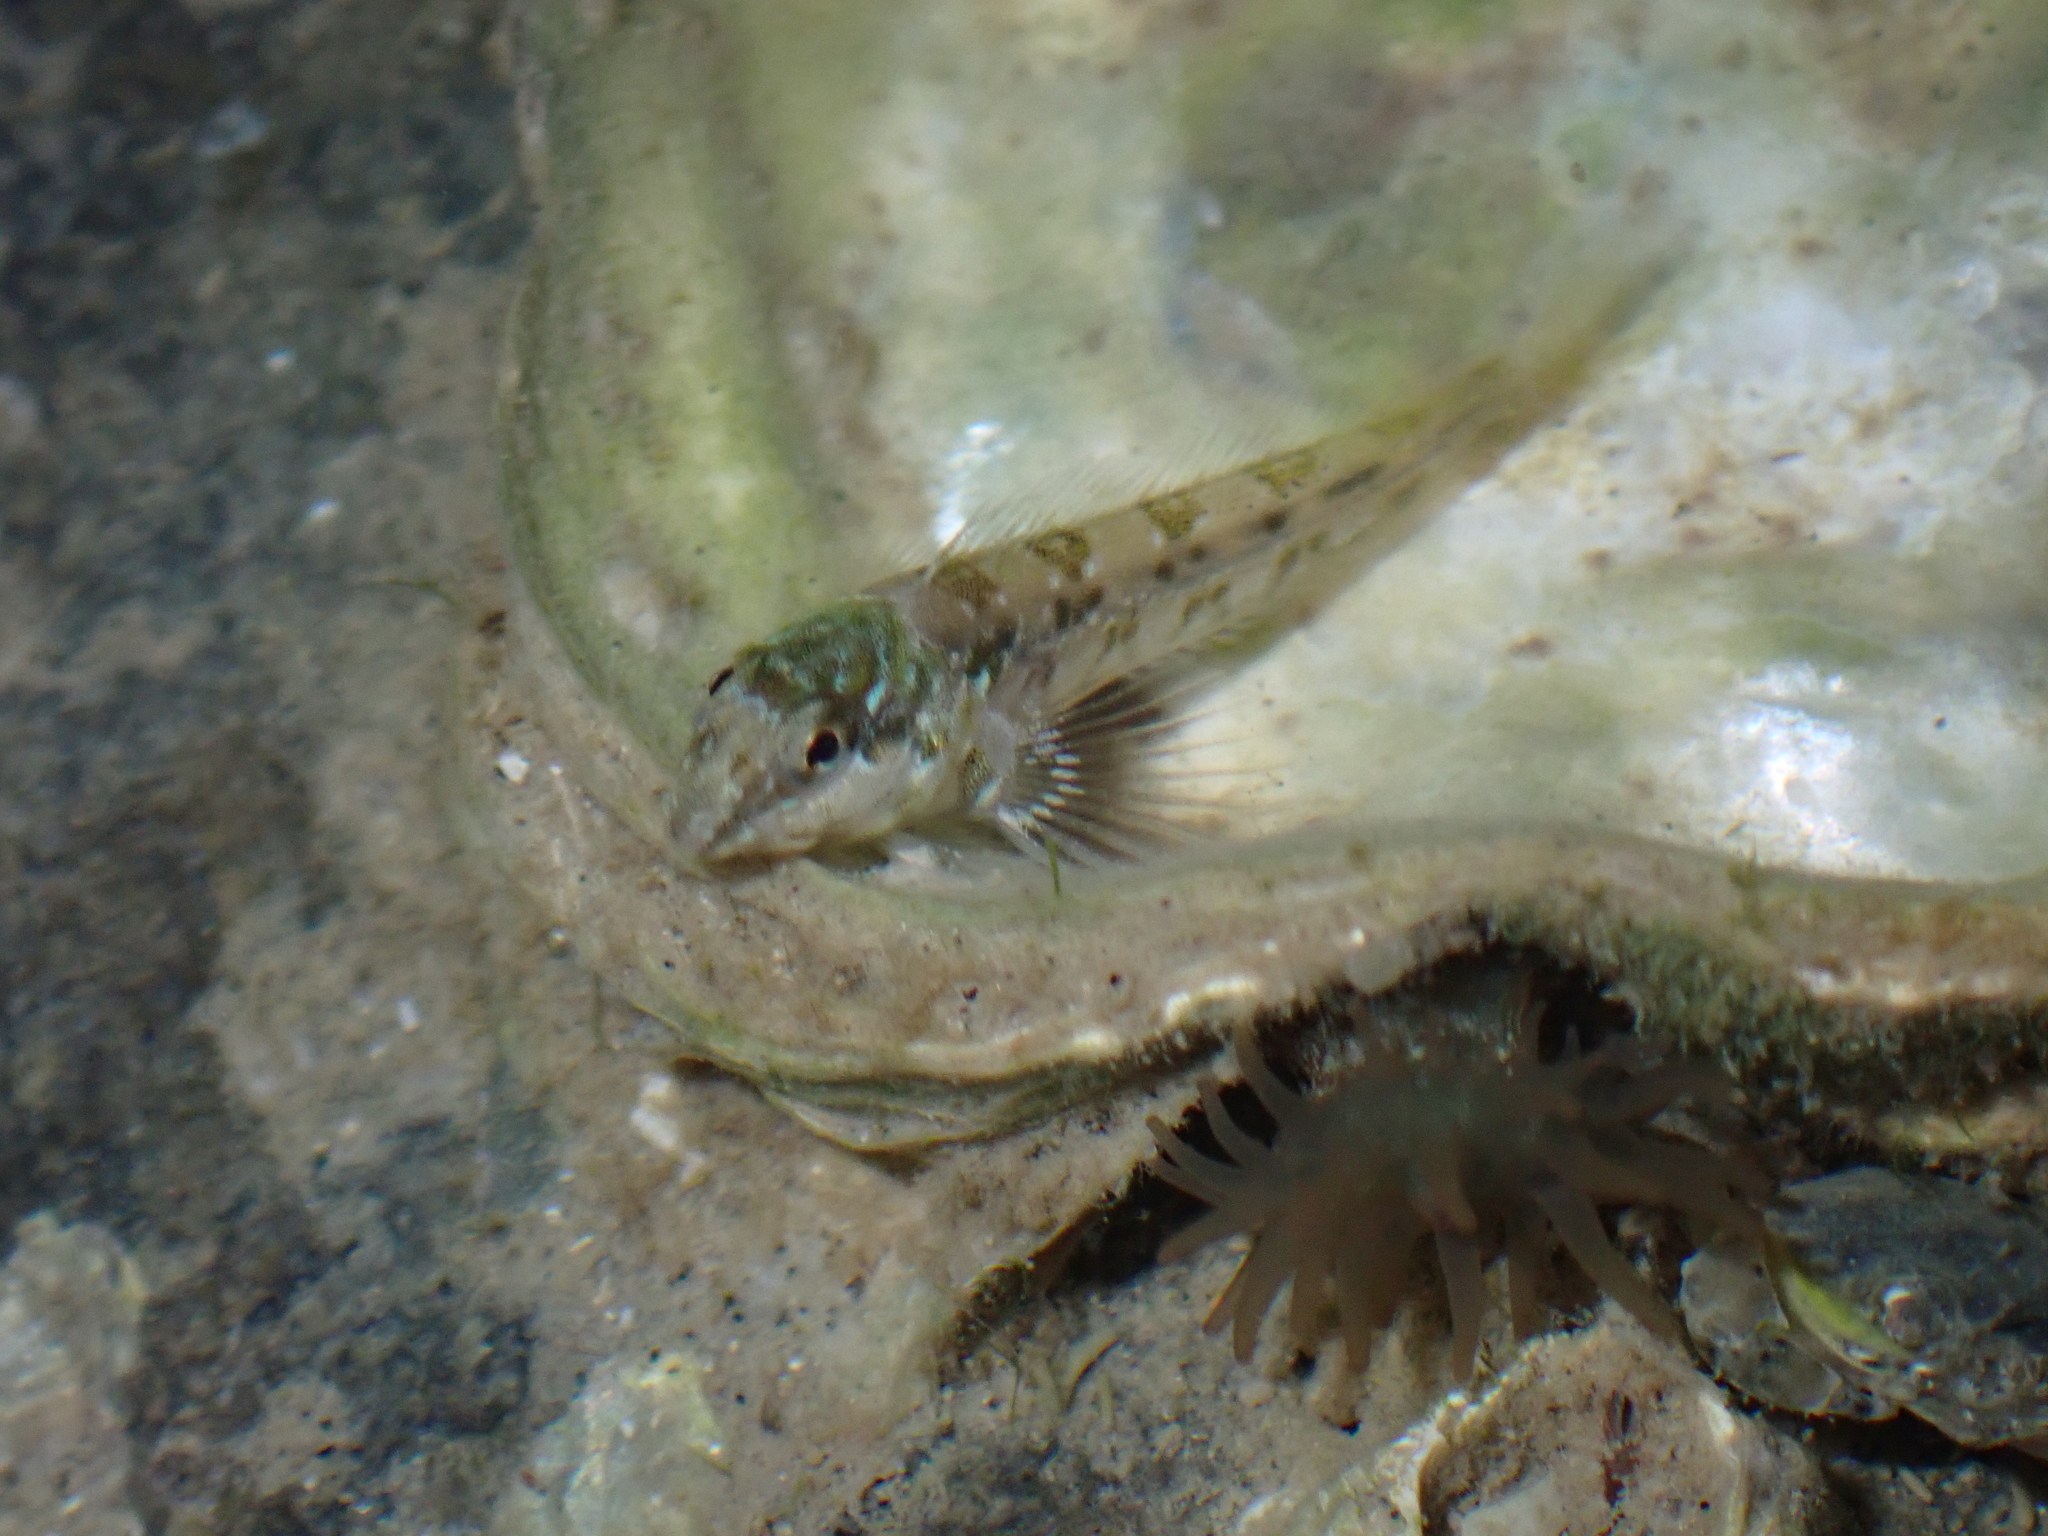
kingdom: Animalia
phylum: Chordata
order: Perciformes
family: Blenniidae
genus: Lipophrys
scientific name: Lipophrys pholis
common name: Shanny
